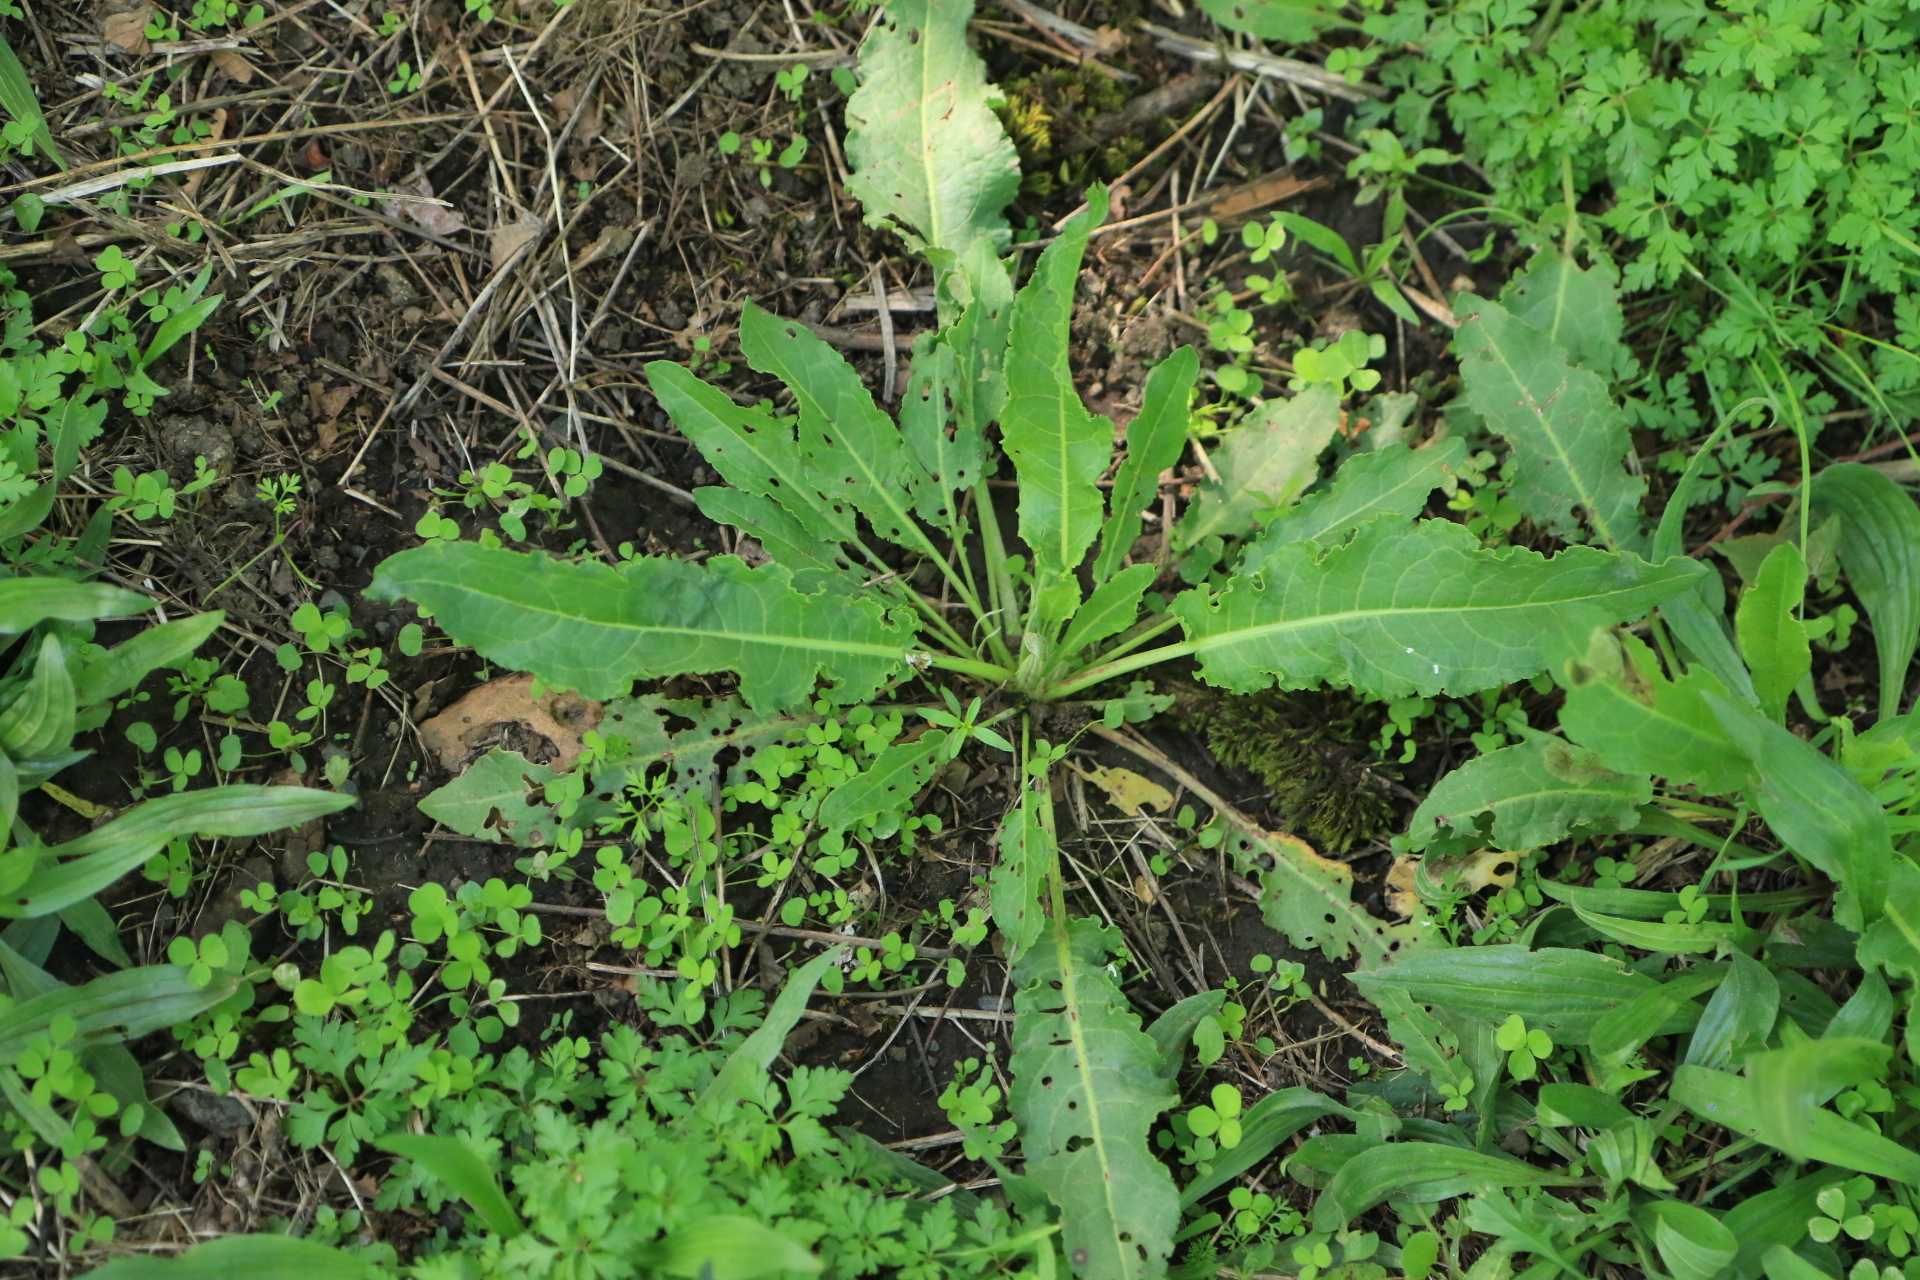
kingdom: Plantae
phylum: Tracheophyta
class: Magnoliopsida
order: Caryophyllales
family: Polygonaceae
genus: Rumex
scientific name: Rumex crispus
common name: Curled dock
